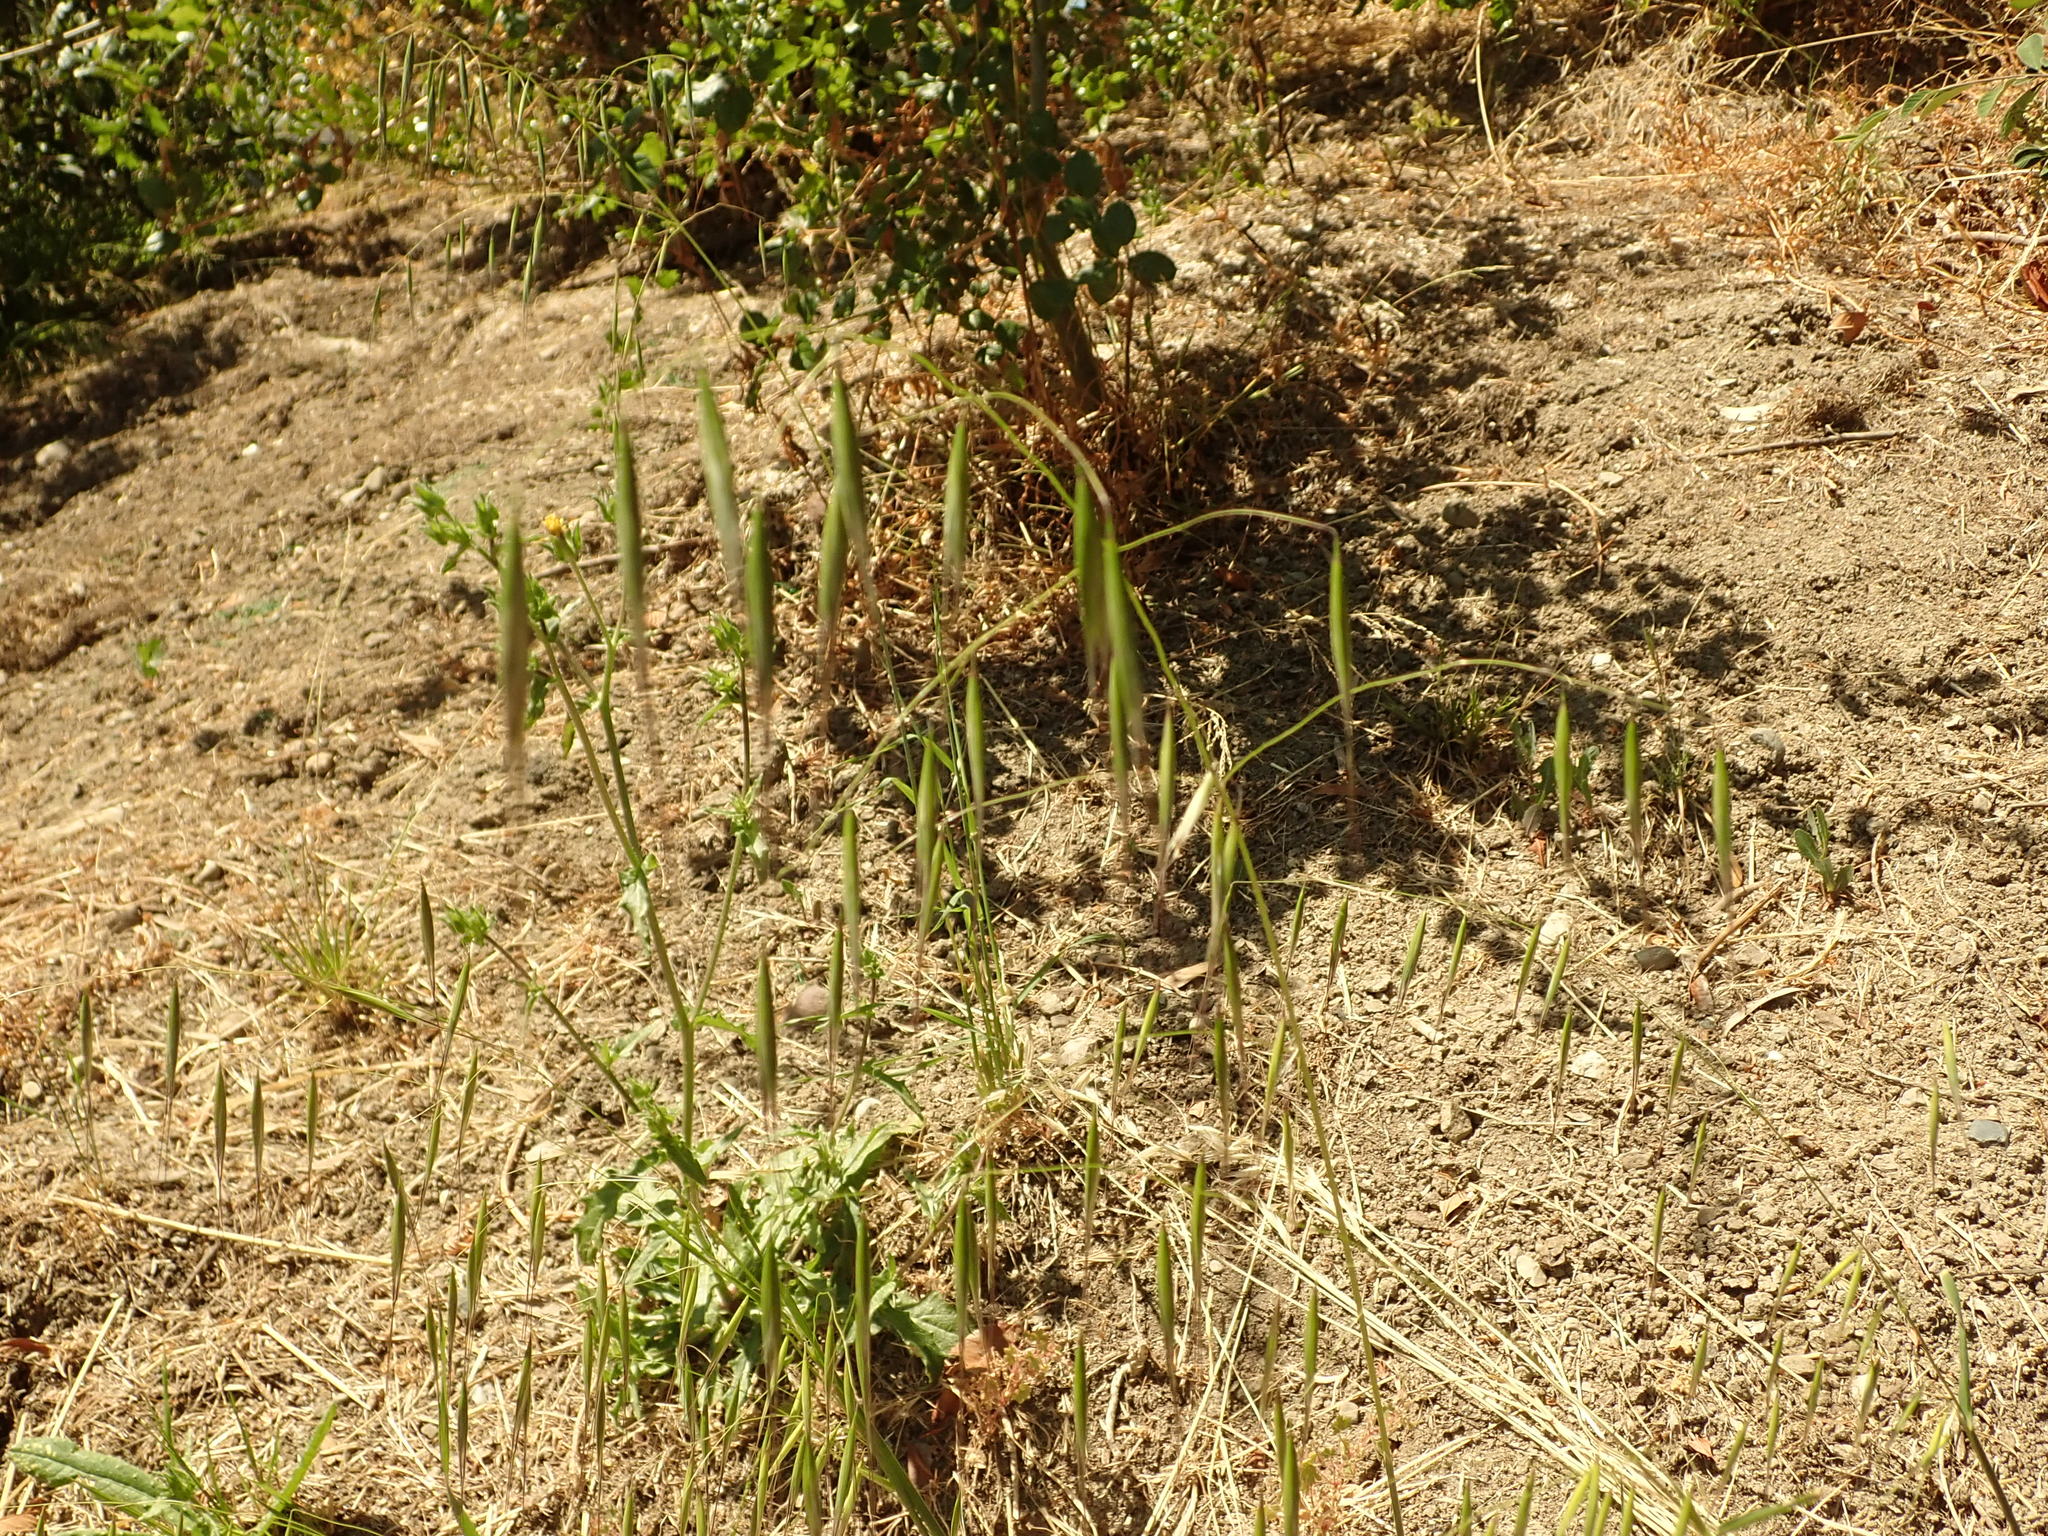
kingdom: Plantae
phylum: Tracheophyta
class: Liliopsida
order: Poales
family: Poaceae
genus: Avena
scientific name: Avena
